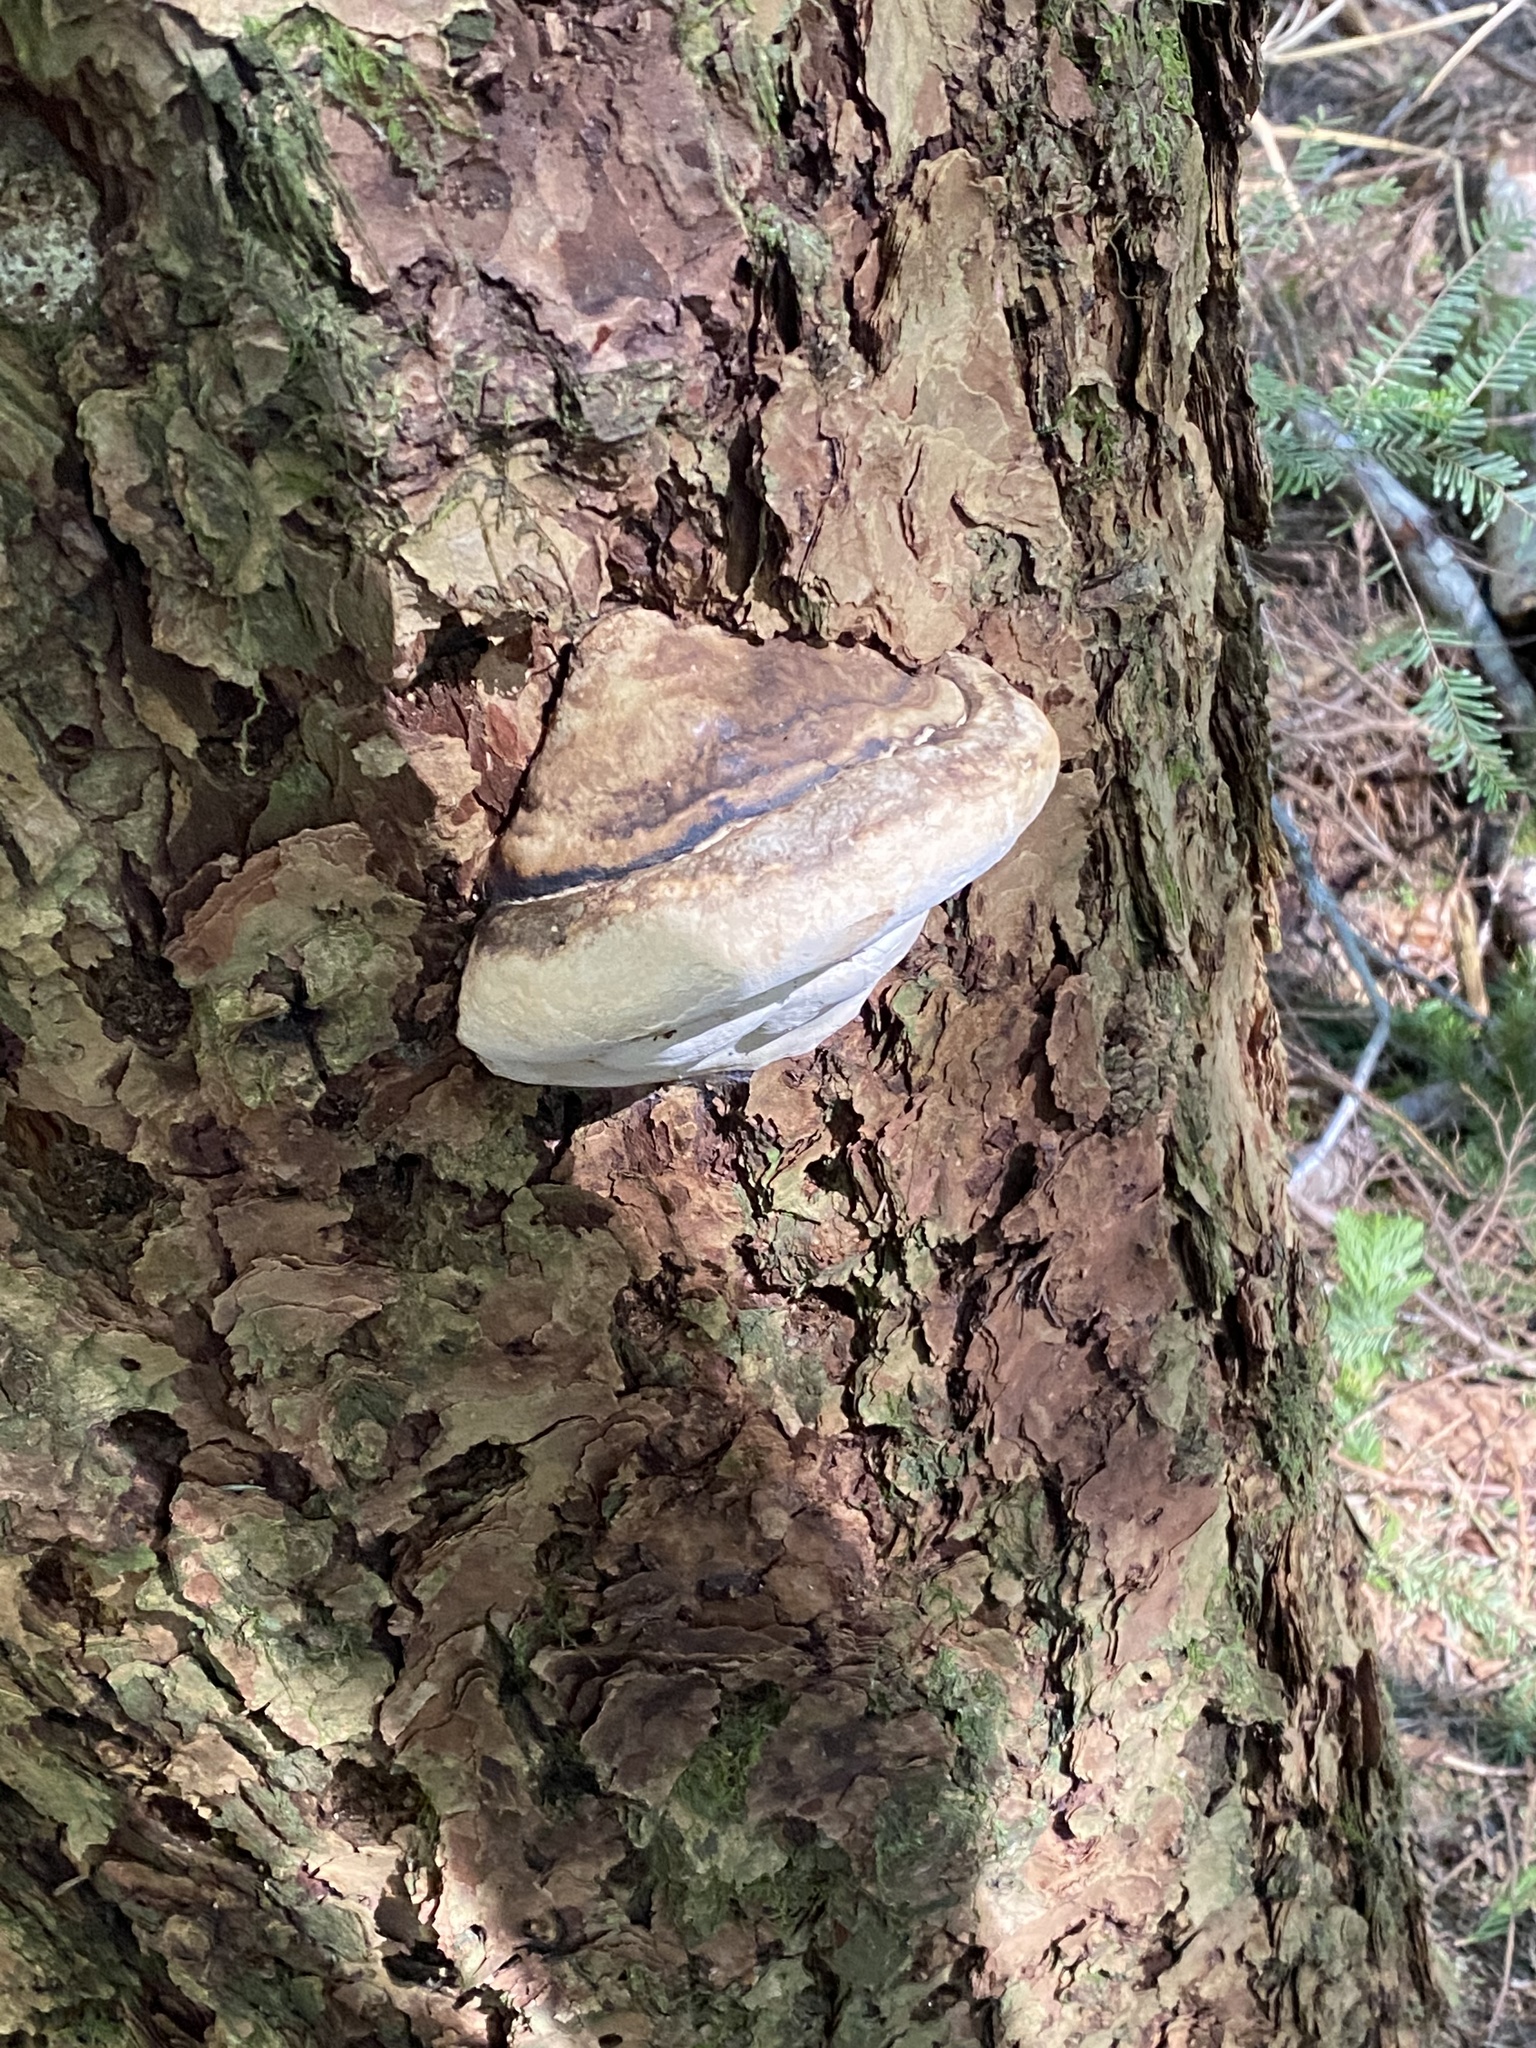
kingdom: Fungi
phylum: Basidiomycota
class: Agaricomycetes
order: Polyporales
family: Polyporaceae
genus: Ganoderma
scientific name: Ganoderma applanatum
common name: Artist's bracket
